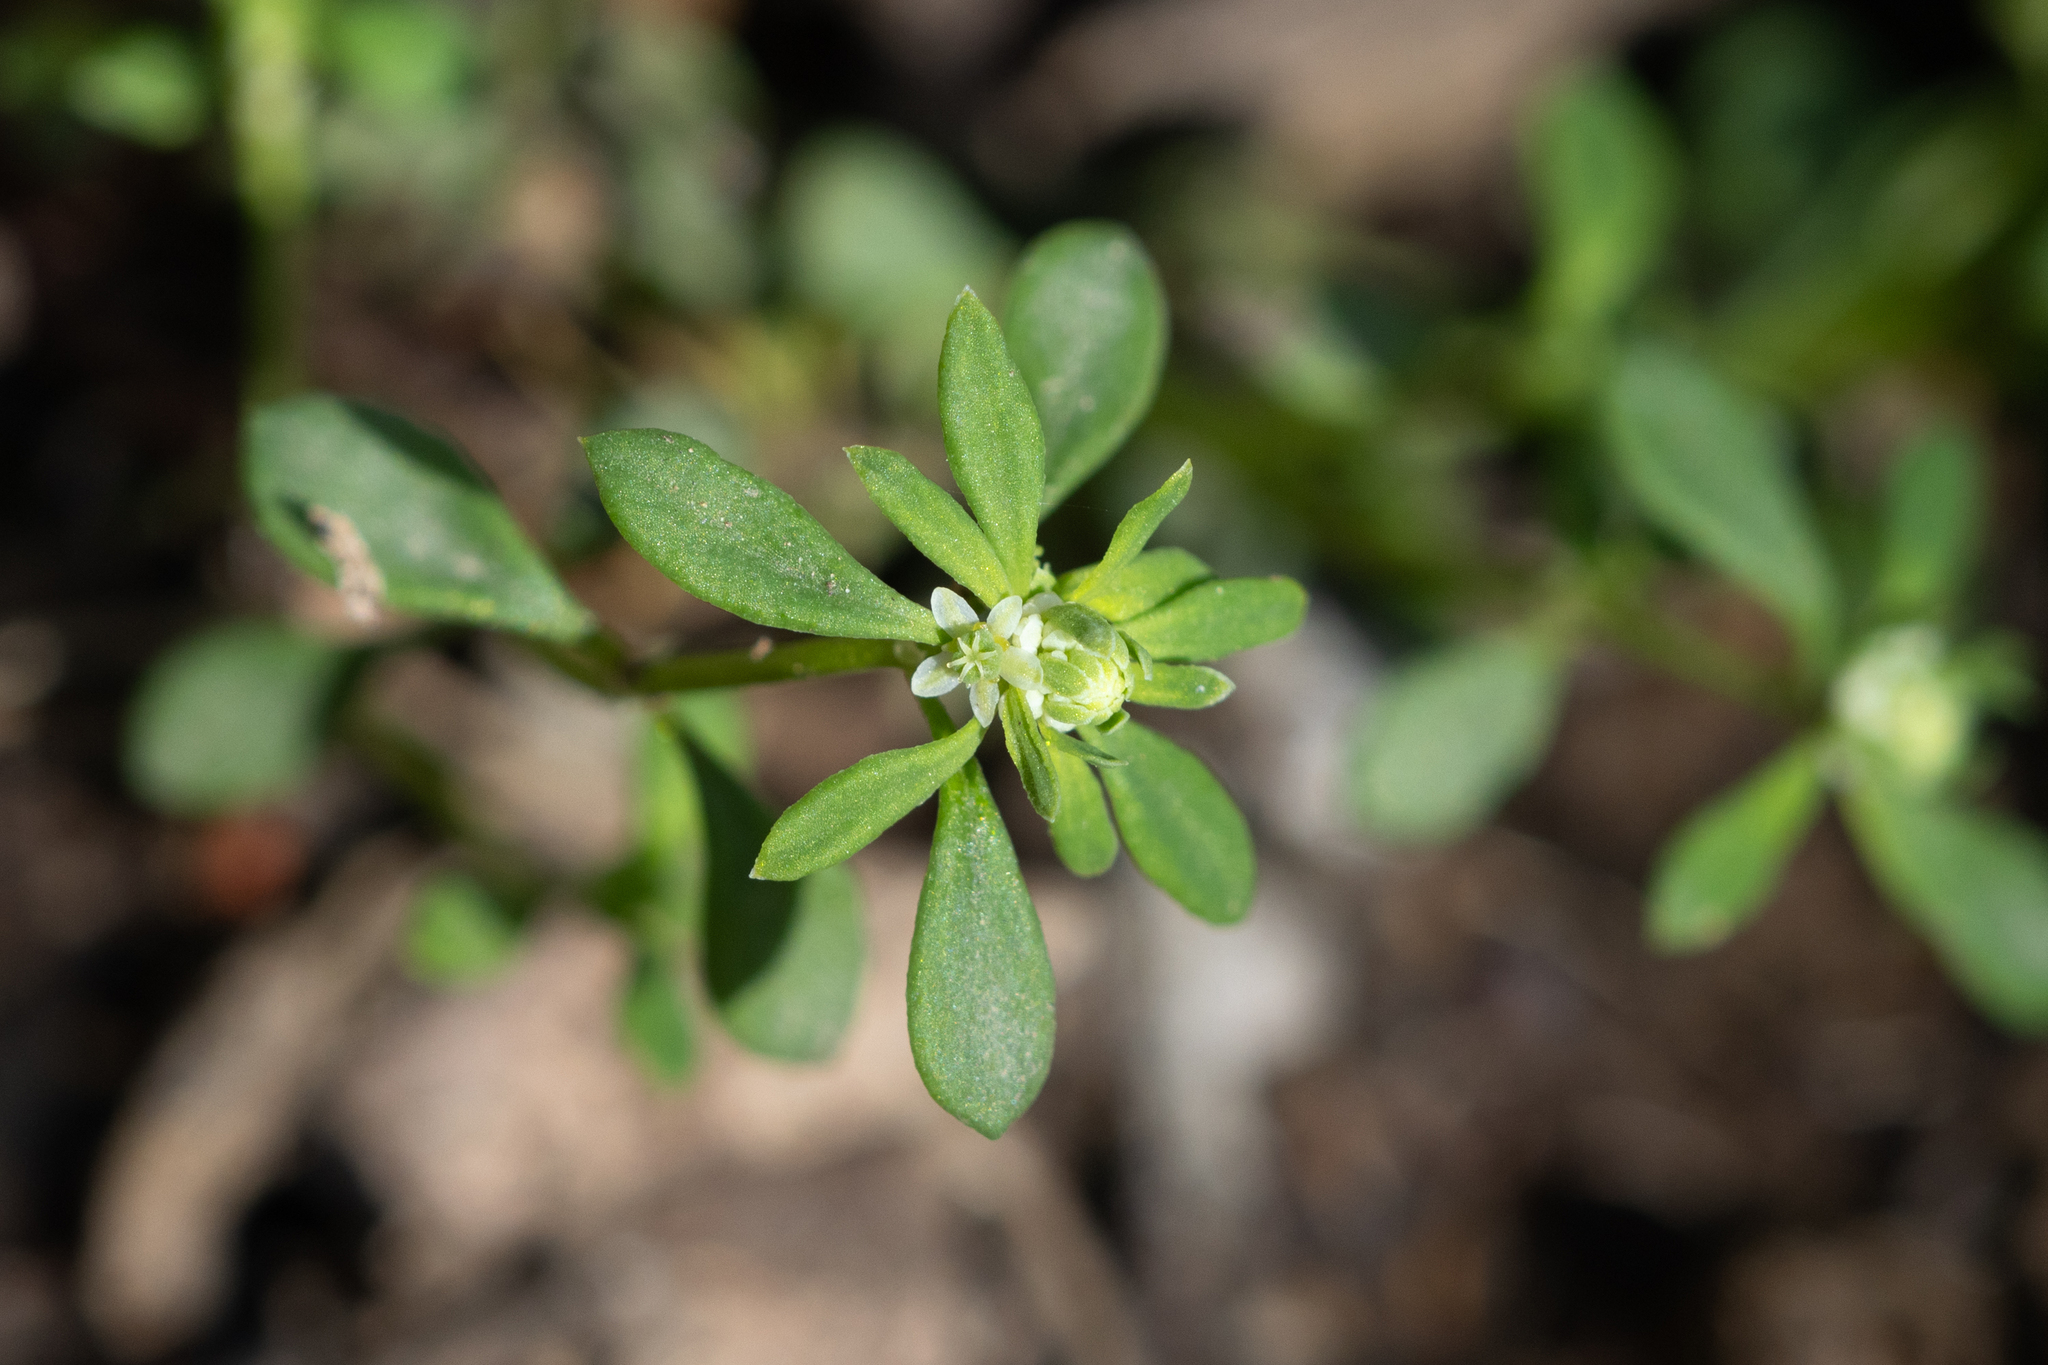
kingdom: Plantae
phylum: Tracheophyta
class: Magnoliopsida
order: Malpighiales
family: Phyllanthaceae
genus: Poranthera
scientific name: Poranthera microphylla
